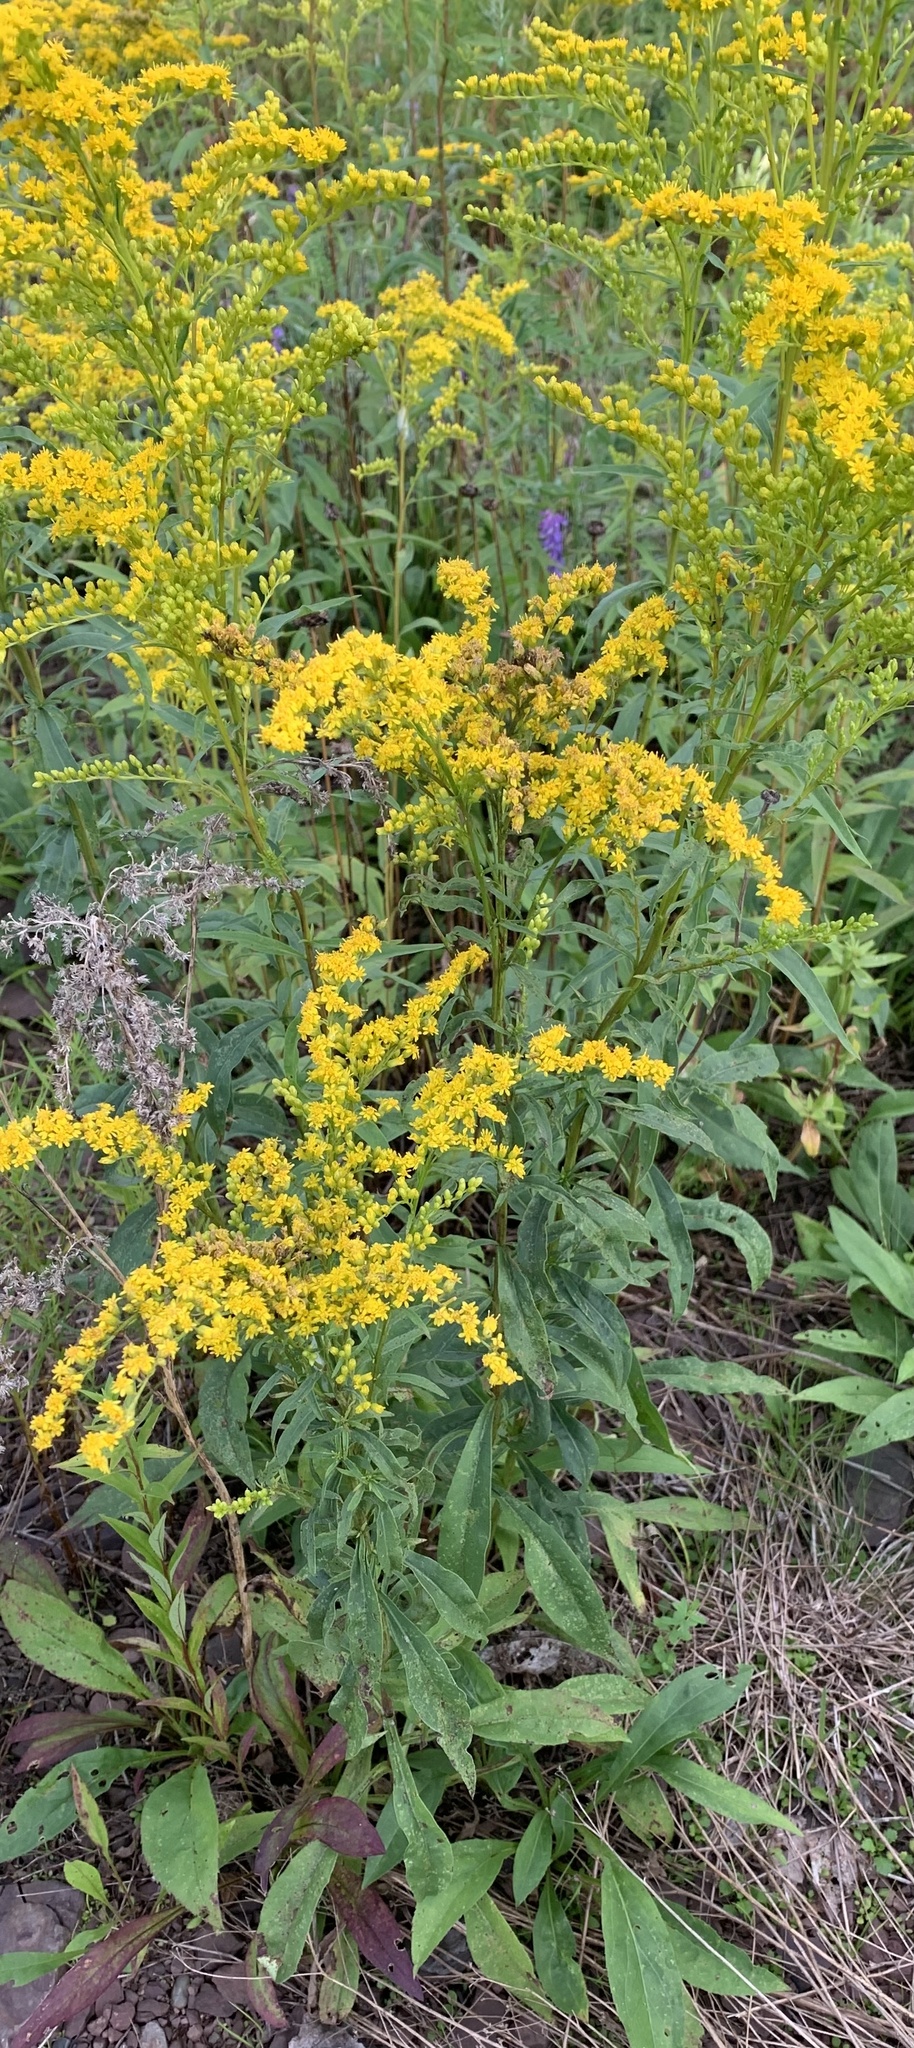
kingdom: Plantae
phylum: Tracheophyta
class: Magnoliopsida
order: Asterales
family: Asteraceae
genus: Solidago
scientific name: Solidago juncea
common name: Early goldenrod
